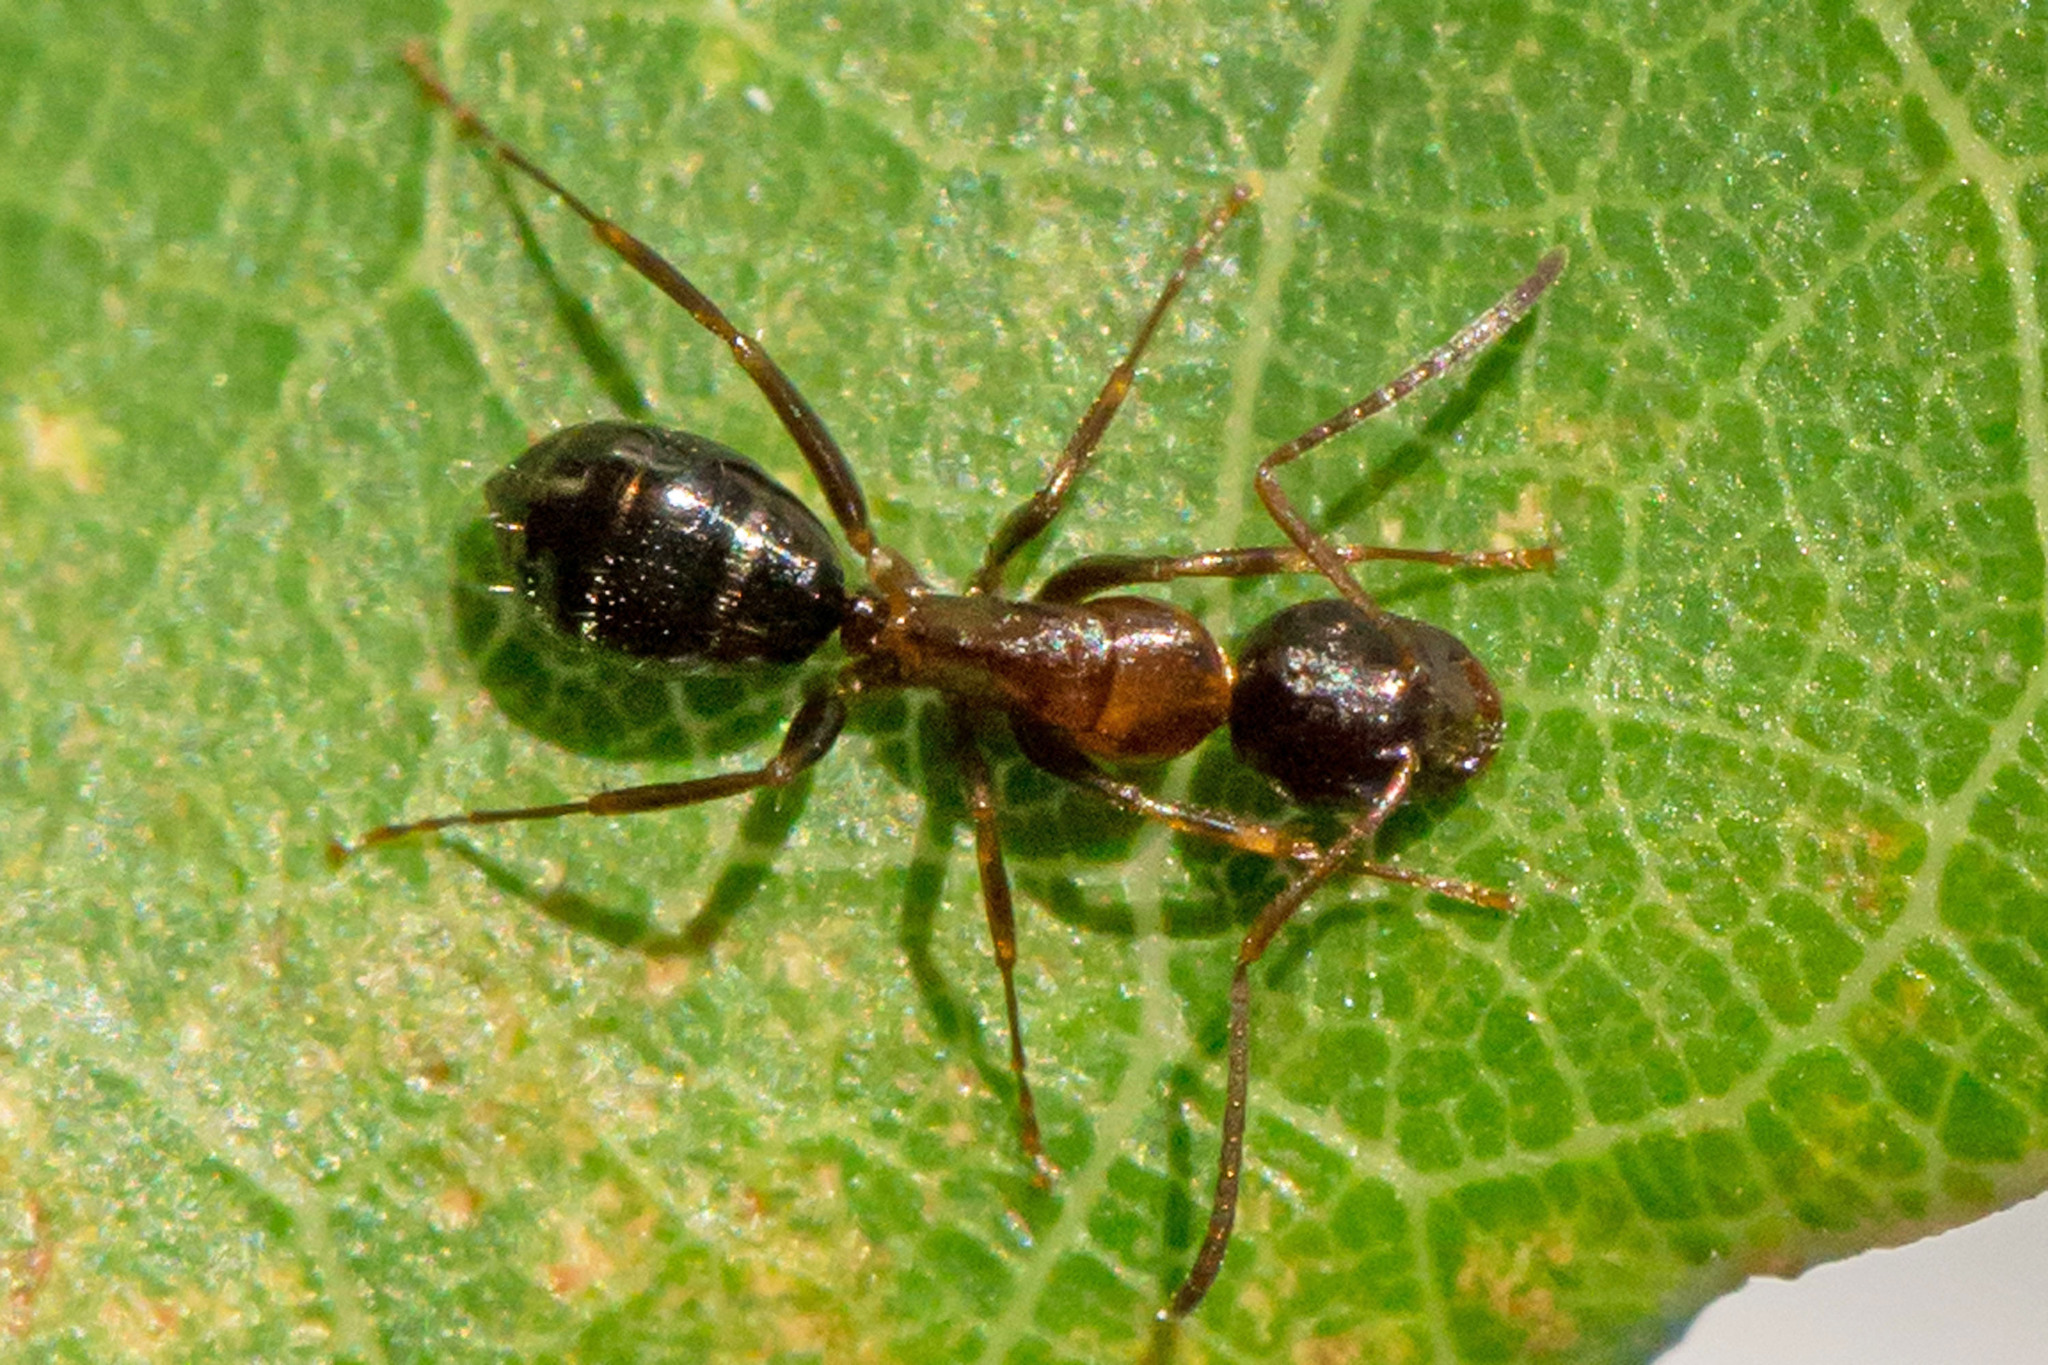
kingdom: Animalia
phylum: Arthropoda
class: Insecta
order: Hymenoptera
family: Formicidae
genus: Camponotus
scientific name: Camponotus nearcticus
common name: Smaller carpenter ant
